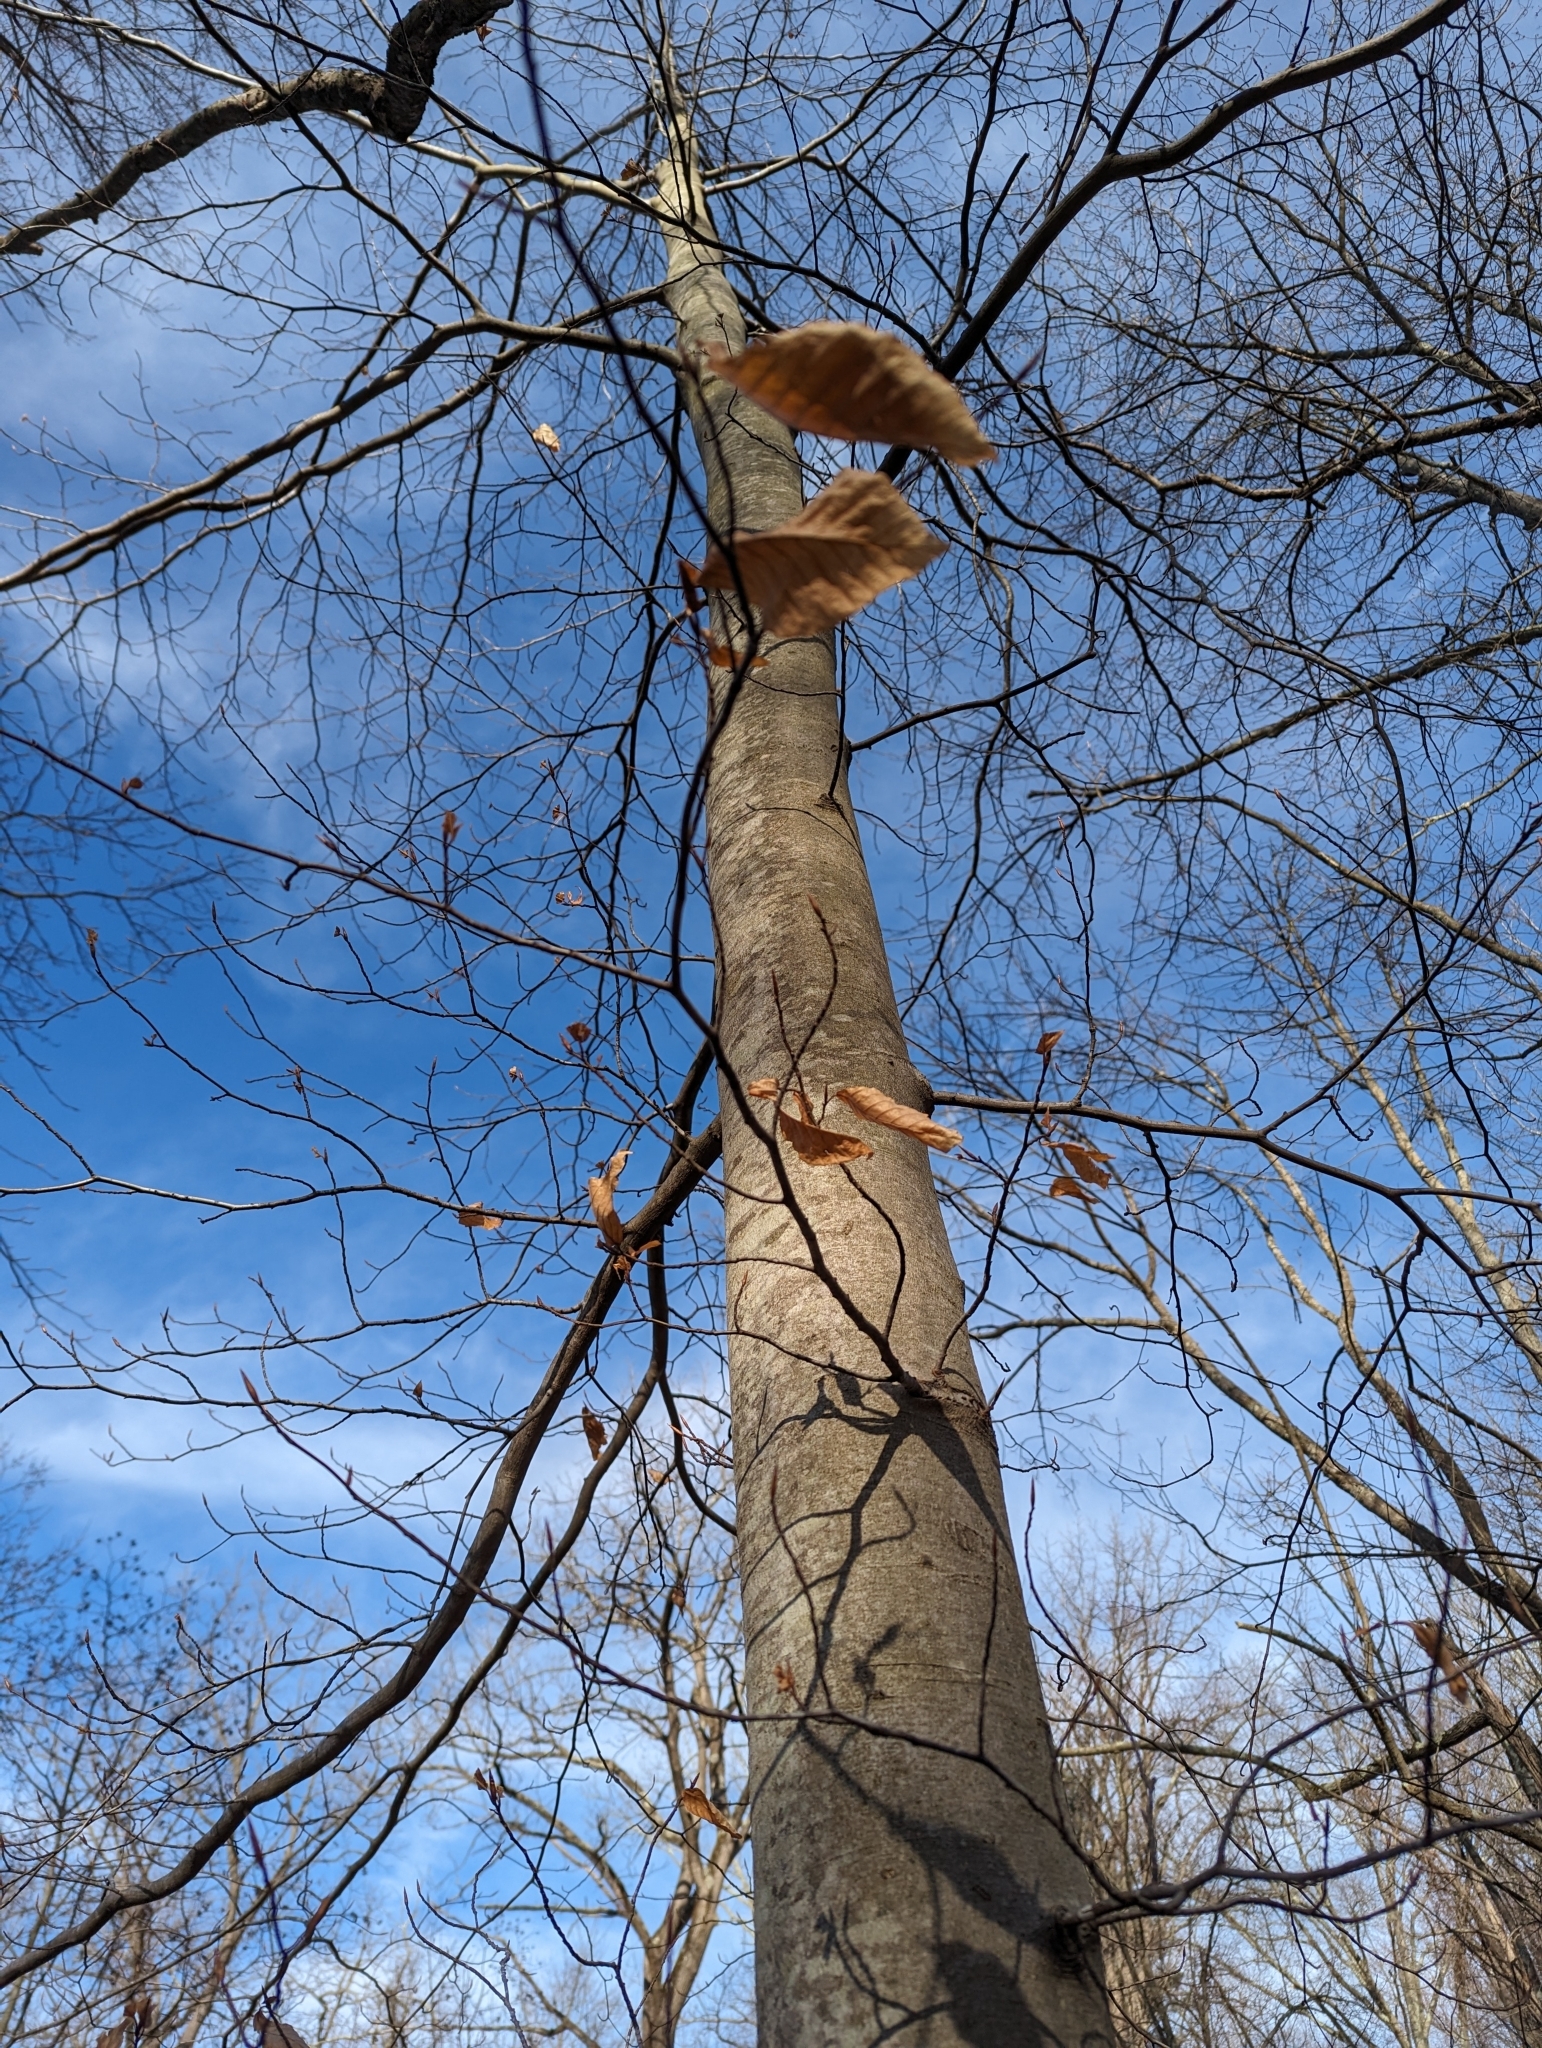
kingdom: Plantae
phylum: Tracheophyta
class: Magnoliopsida
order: Fagales
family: Fagaceae
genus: Fagus
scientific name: Fagus grandifolia
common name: American beech
